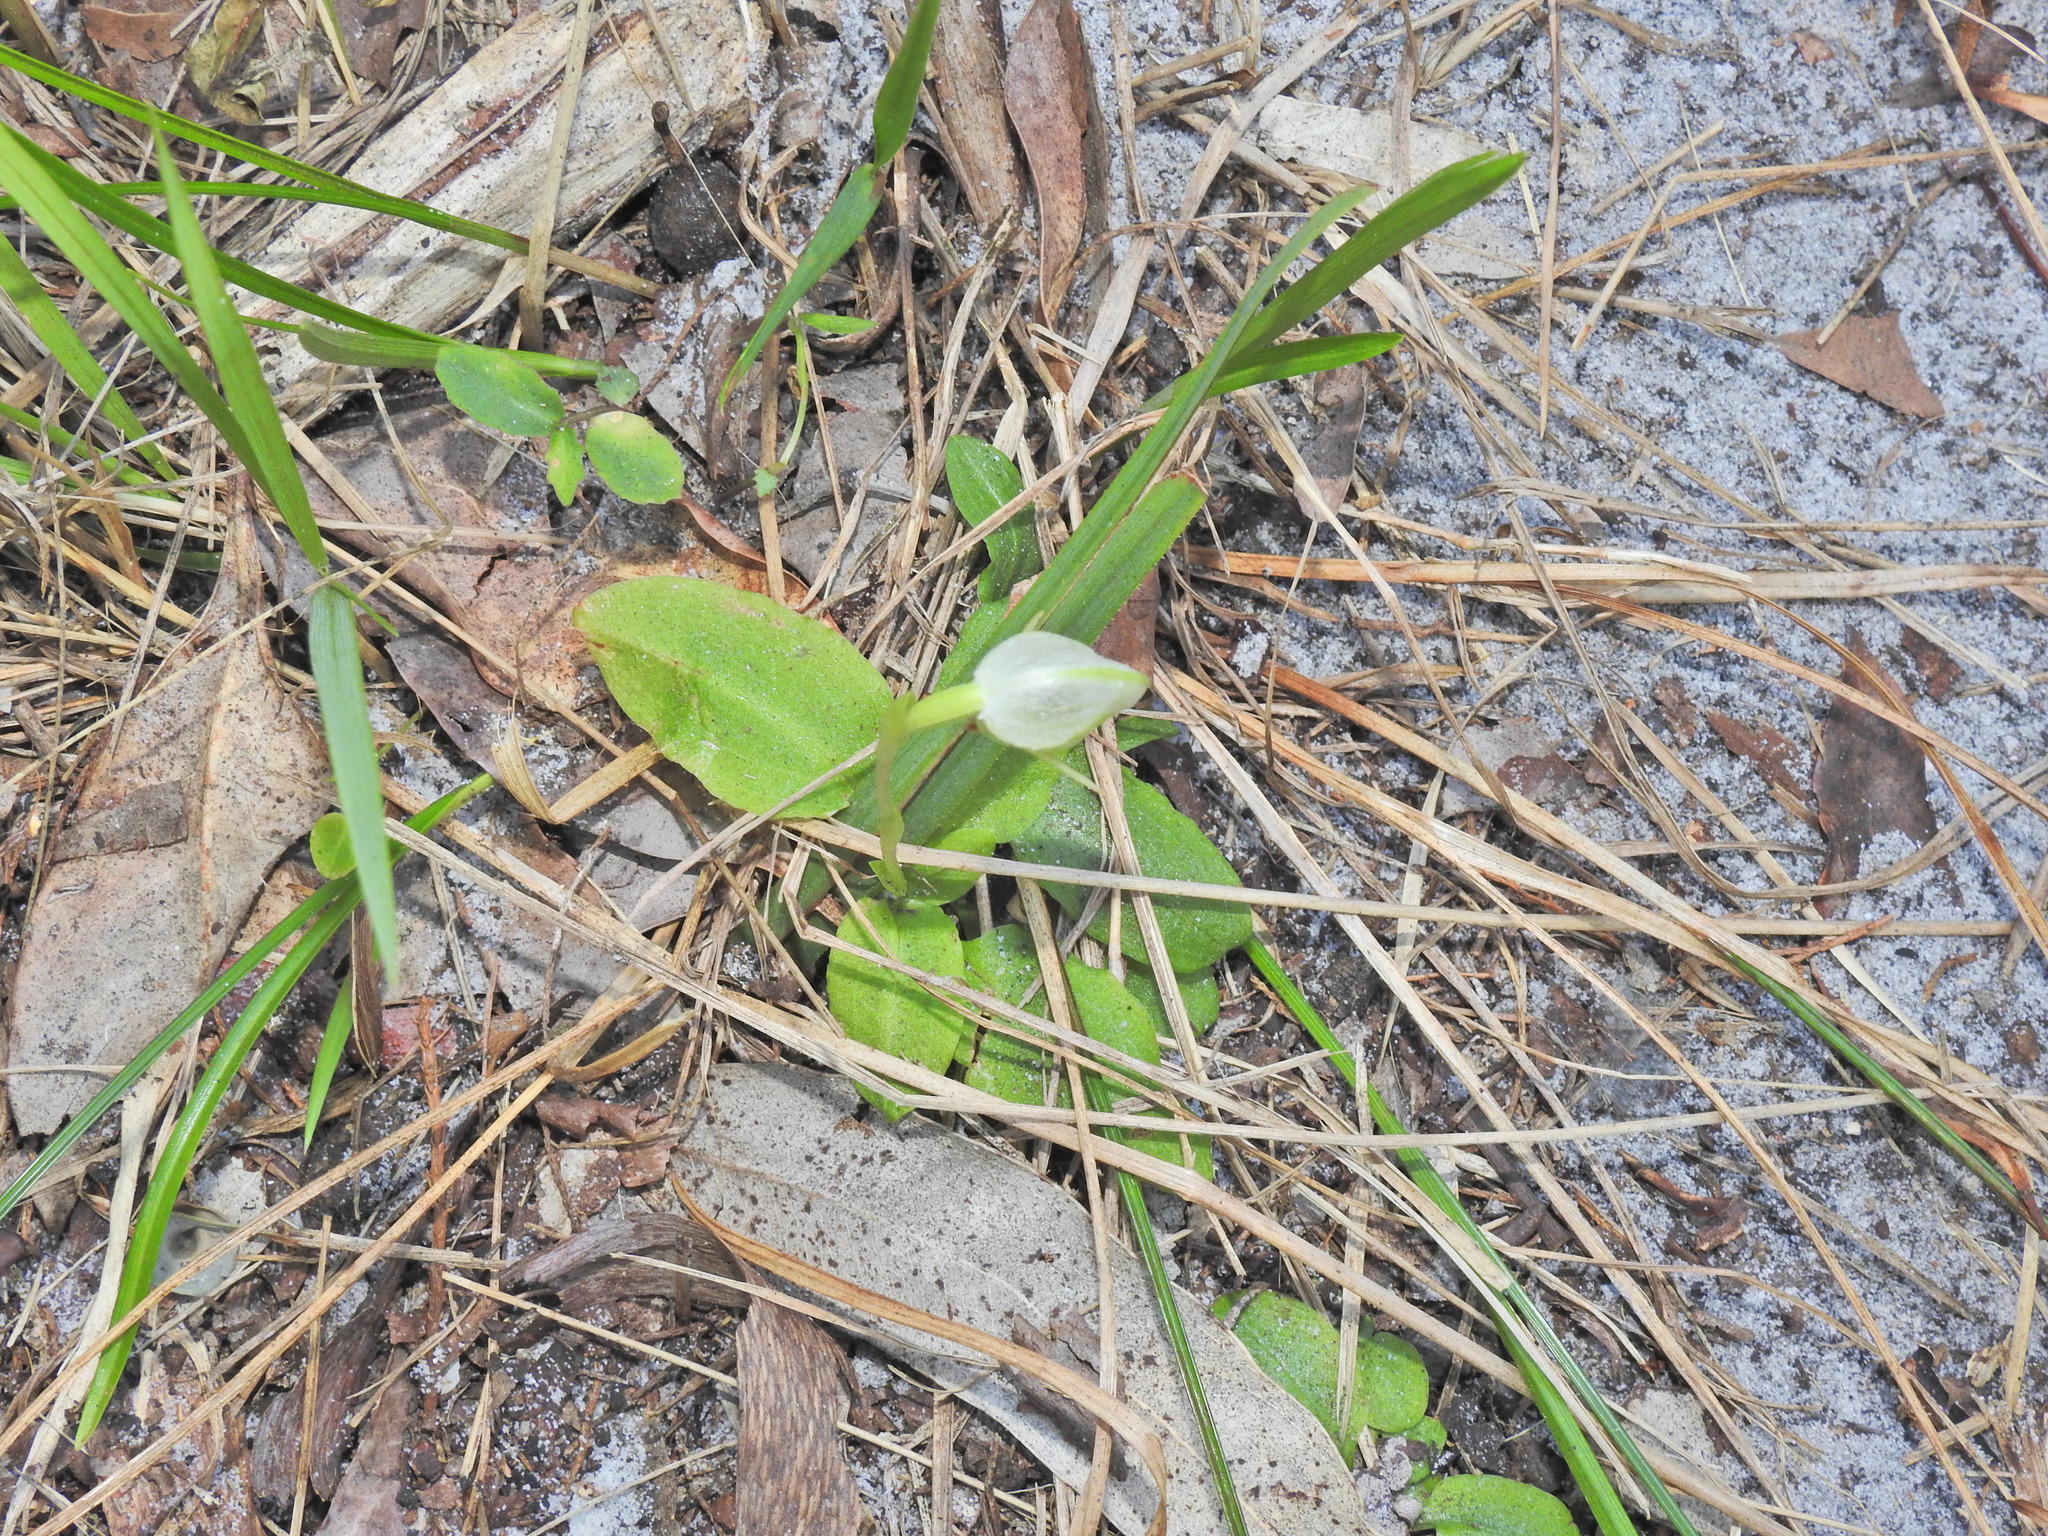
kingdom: Plantae
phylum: Tracheophyta
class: Liliopsida
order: Asparagales
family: Orchidaceae
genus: Pterostylis
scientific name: Pterostylis nutans
